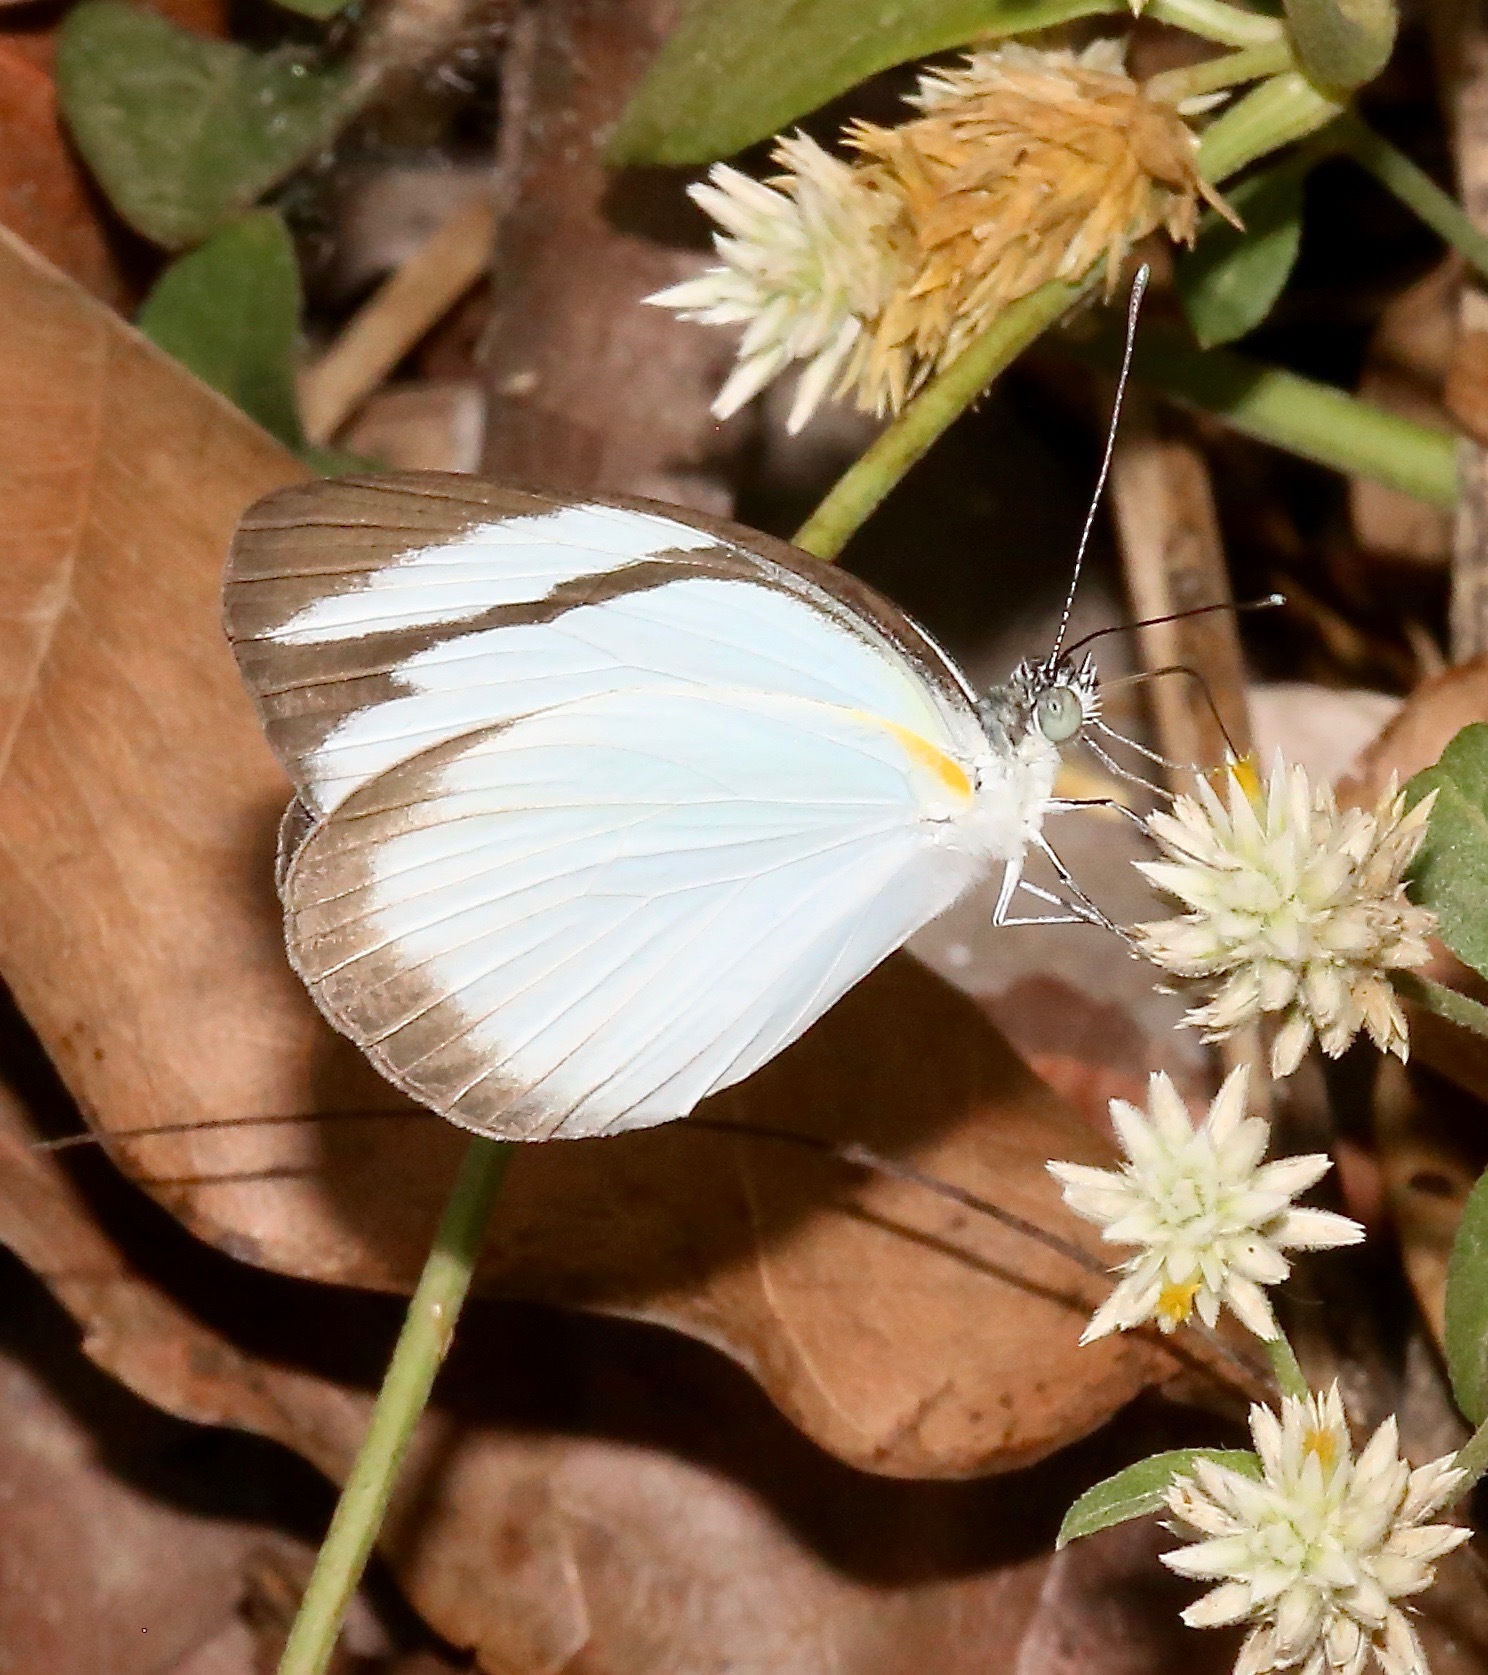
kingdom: Animalia
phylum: Arthropoda
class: Insecta
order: Lepidoptera
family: Pieridae
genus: Itaballia
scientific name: Itaballia demophile
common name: Cross-barred white
